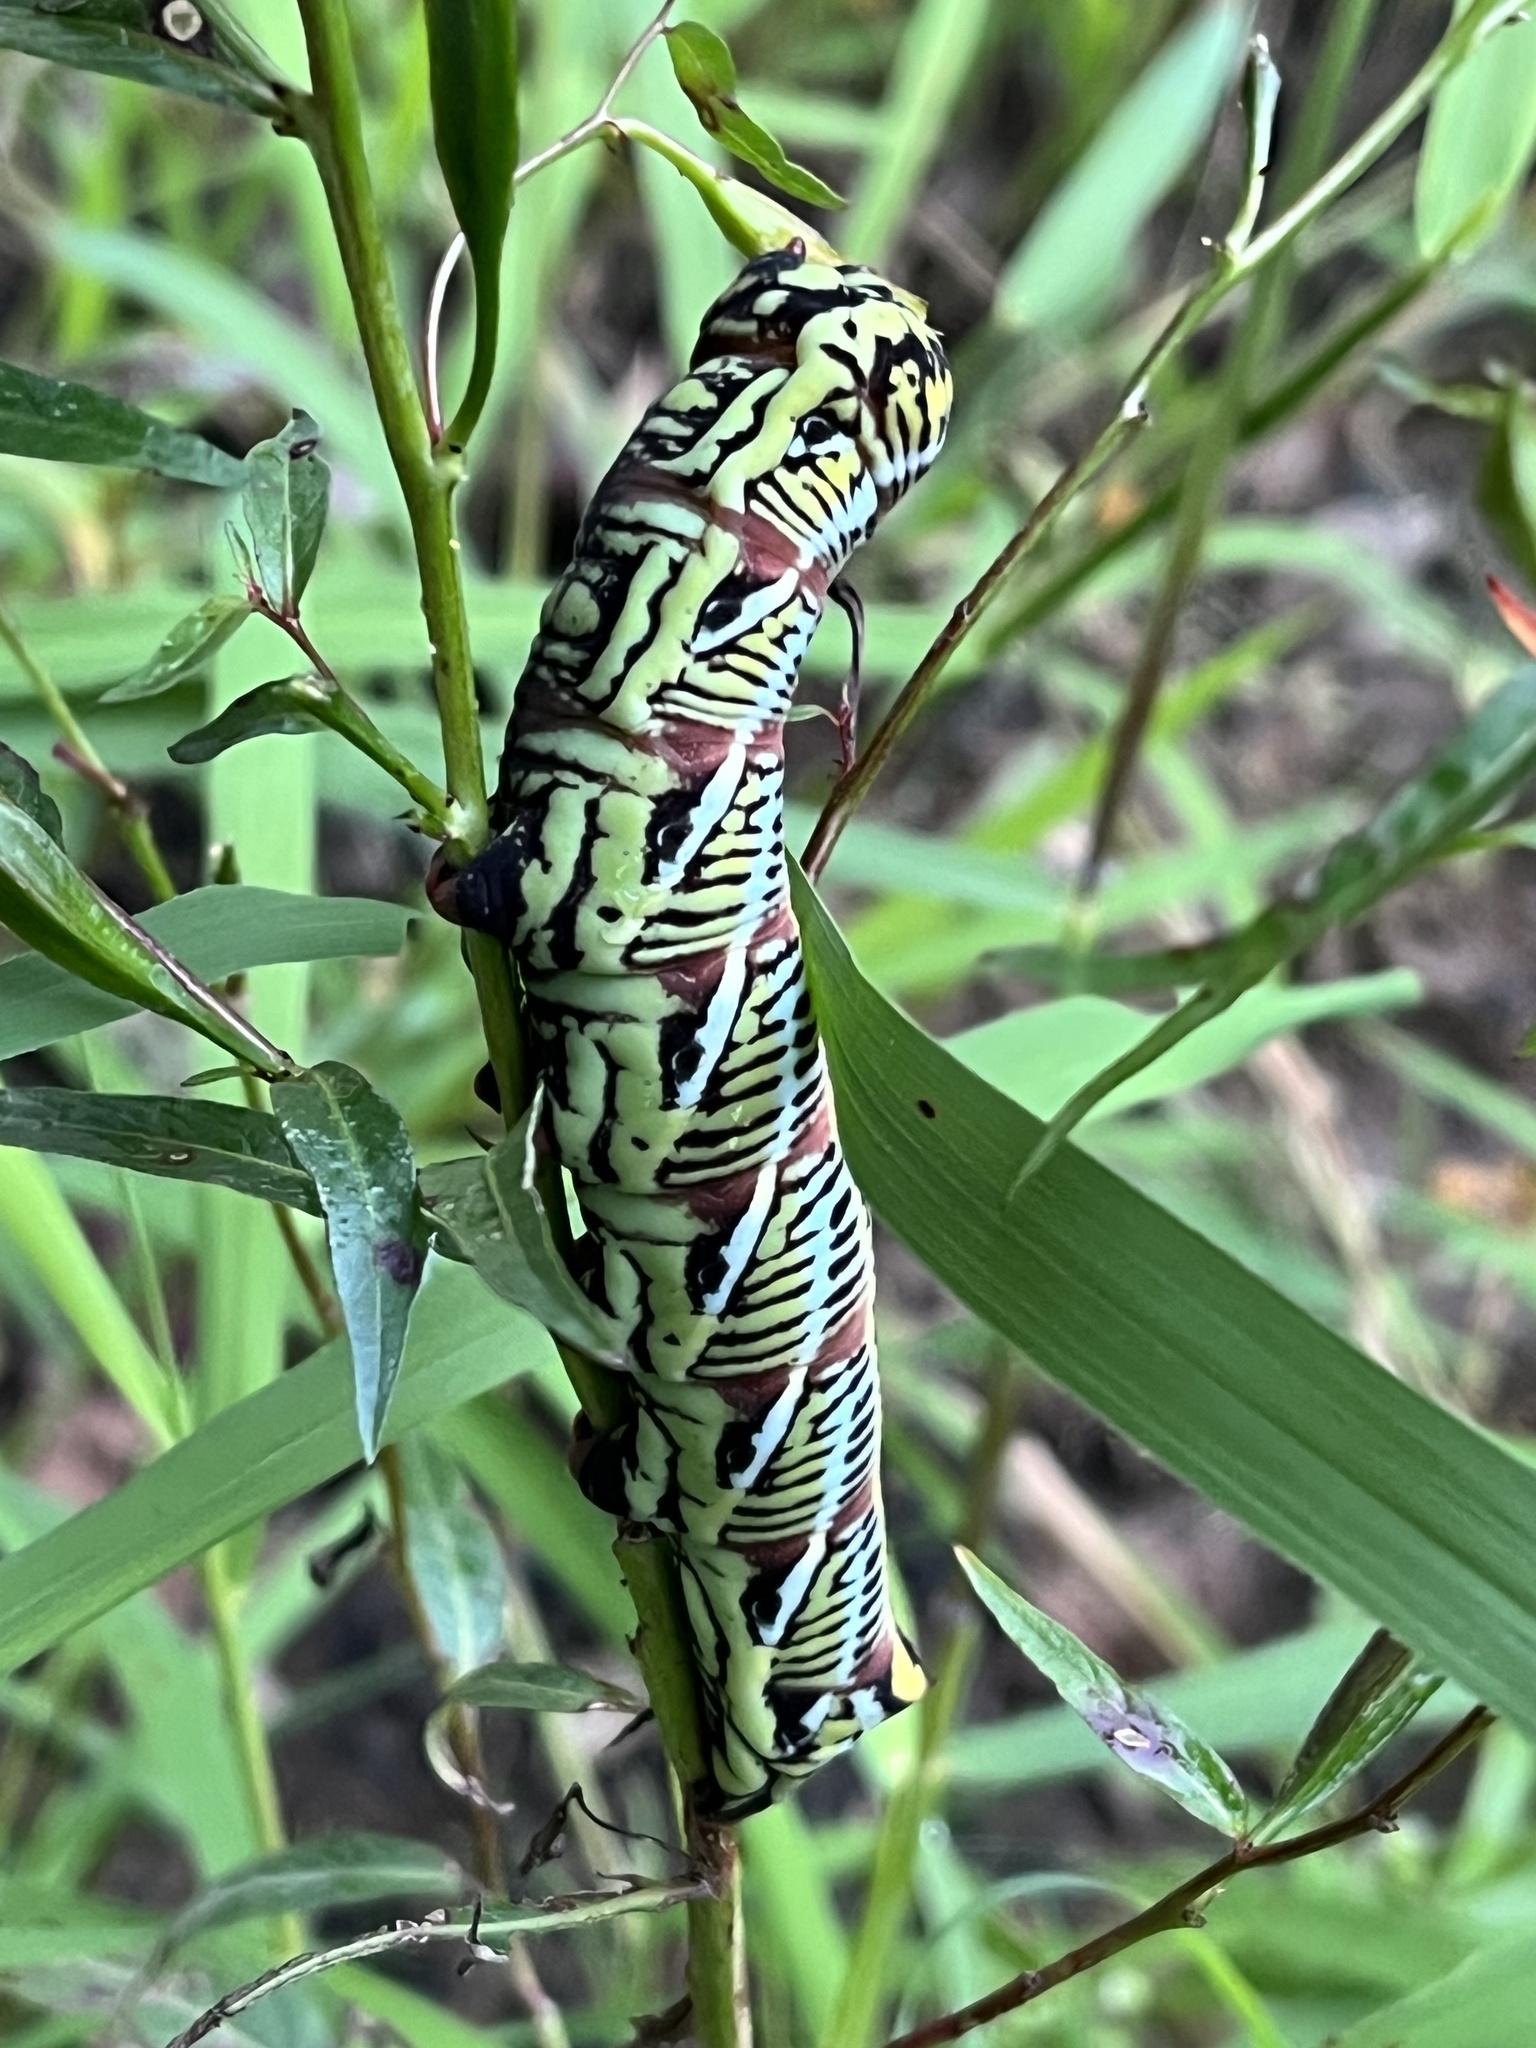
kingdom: Animalia
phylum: Arthropoda
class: Insecta
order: Lepidoptera
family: Sphingidae
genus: Eumorpha
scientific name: Eumorpha fasciatus
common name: Banded sphinx
